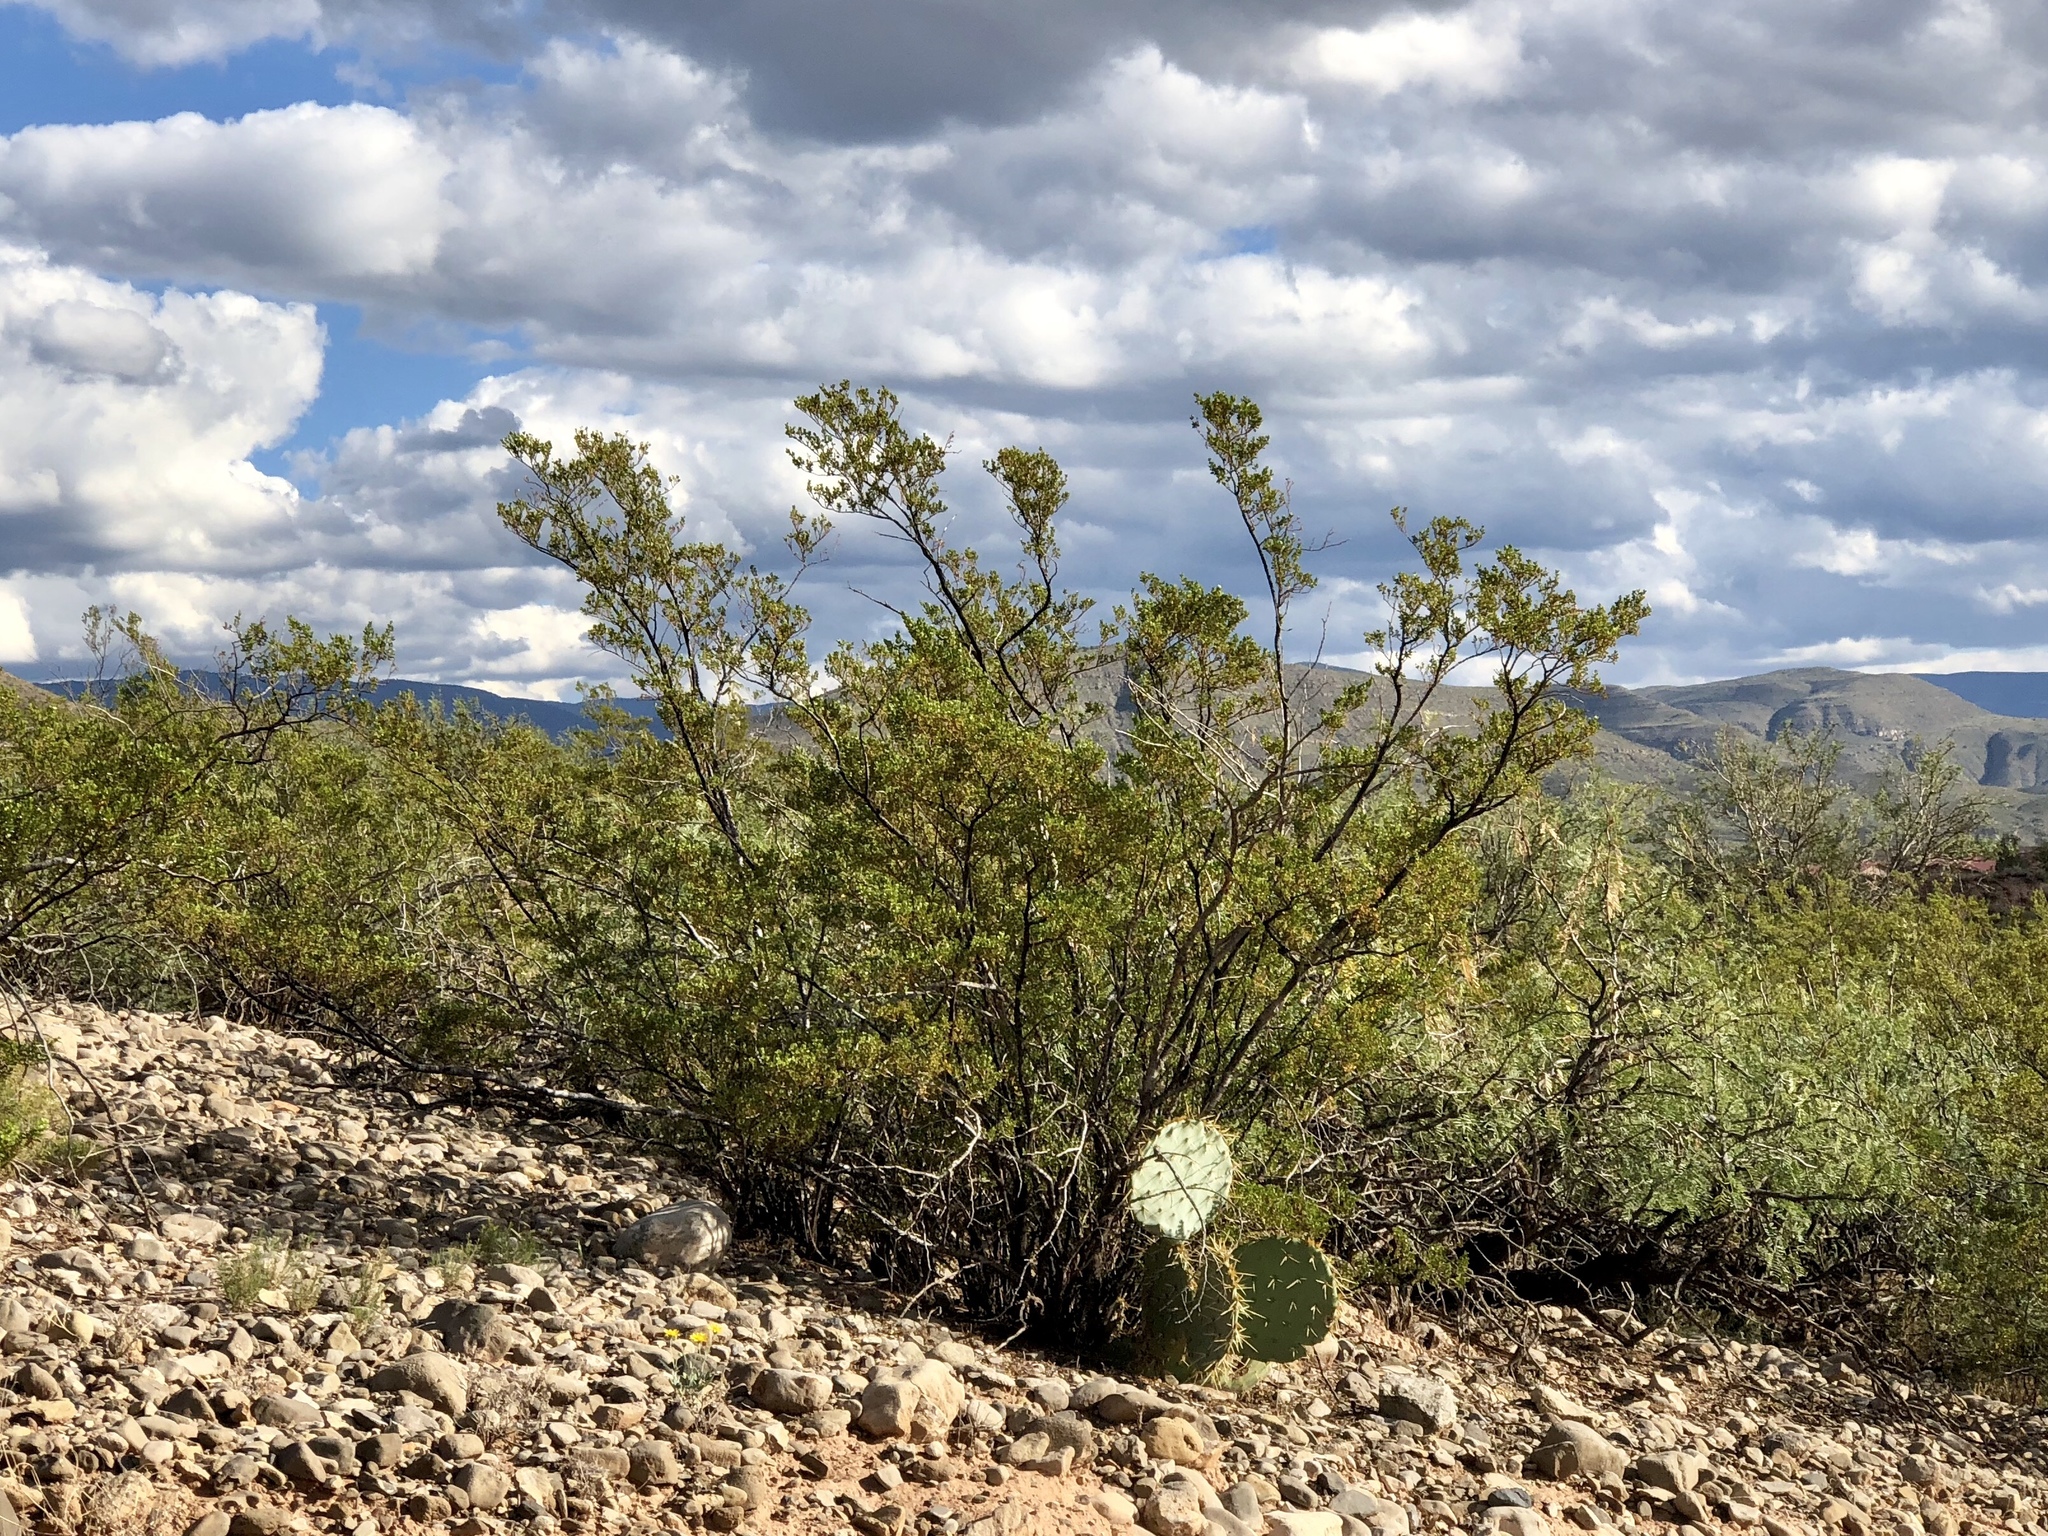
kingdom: Plantae
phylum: Tracheophyta
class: Magnoliopsida
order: Zygophyllales
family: Zygophyllaceae
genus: Larrea
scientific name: Larrea tridentata
